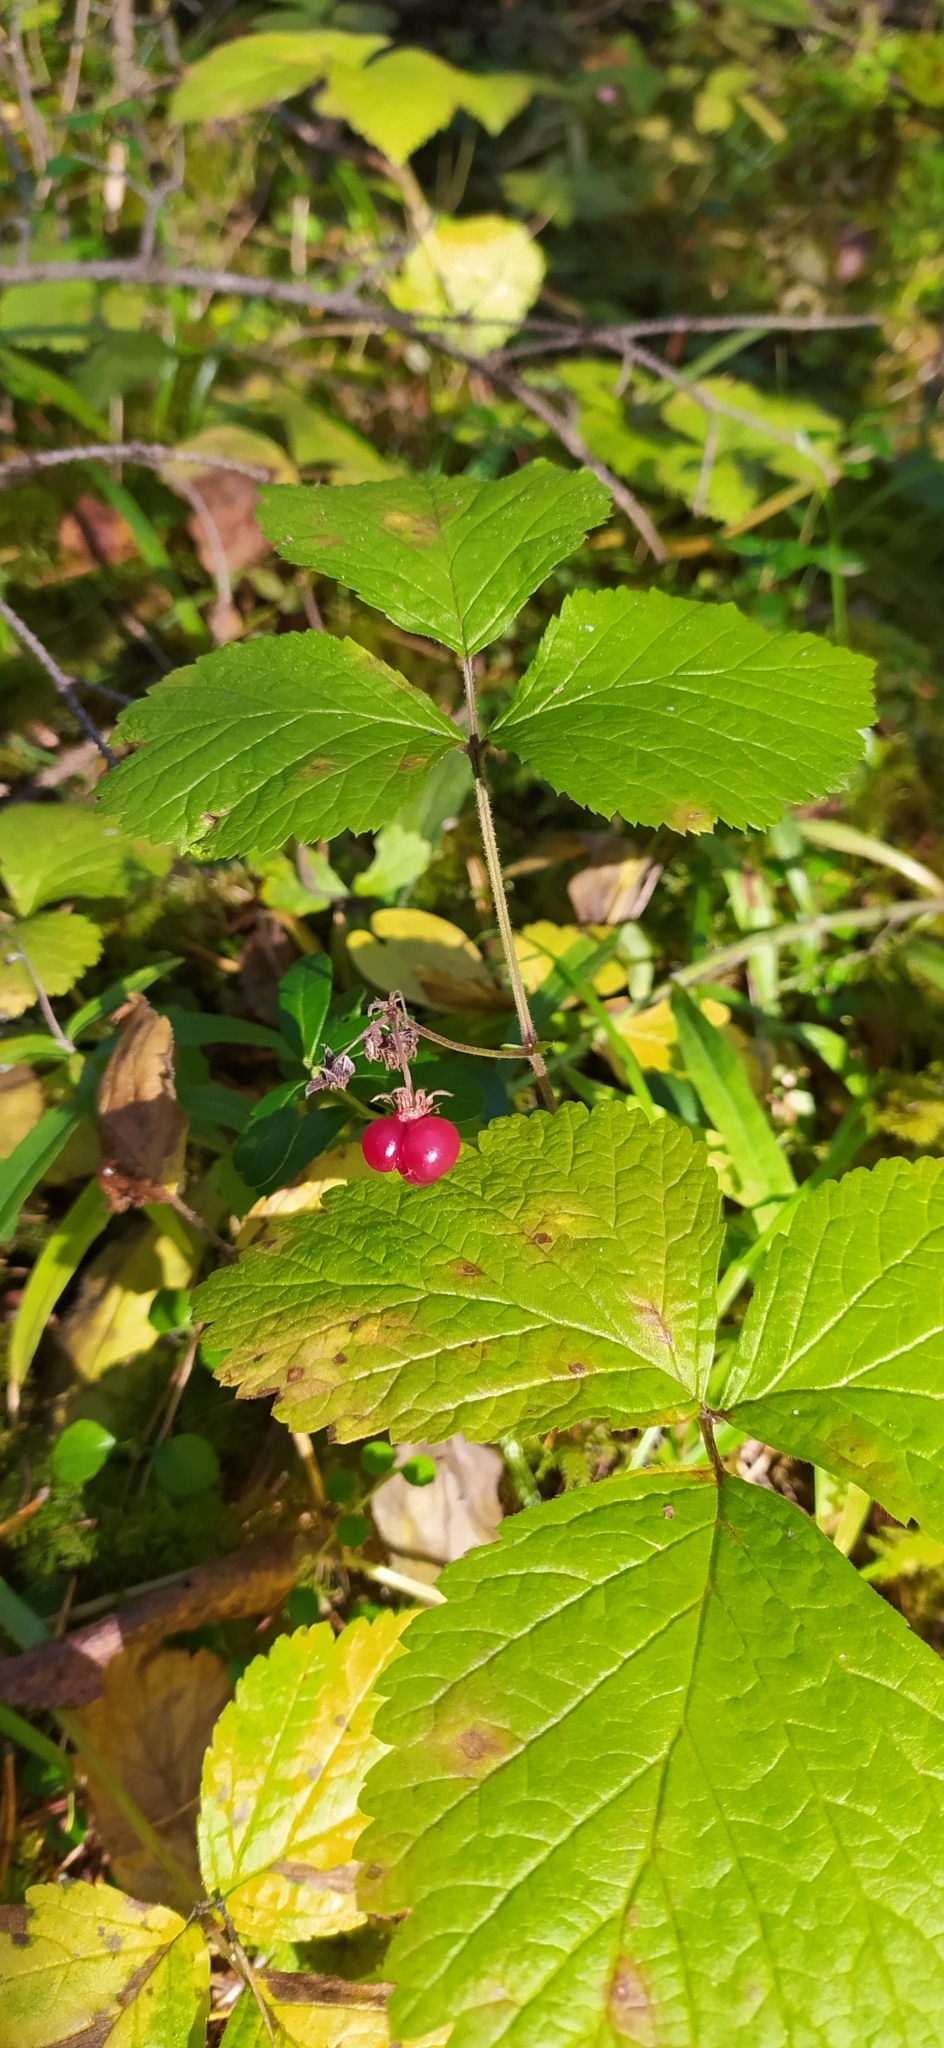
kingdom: Plantae
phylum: Tracheophyta
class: Magnoliopsida
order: Rosales
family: Rosaceae
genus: Rubus
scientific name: Rubus saxatilis
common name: Stone bramble
